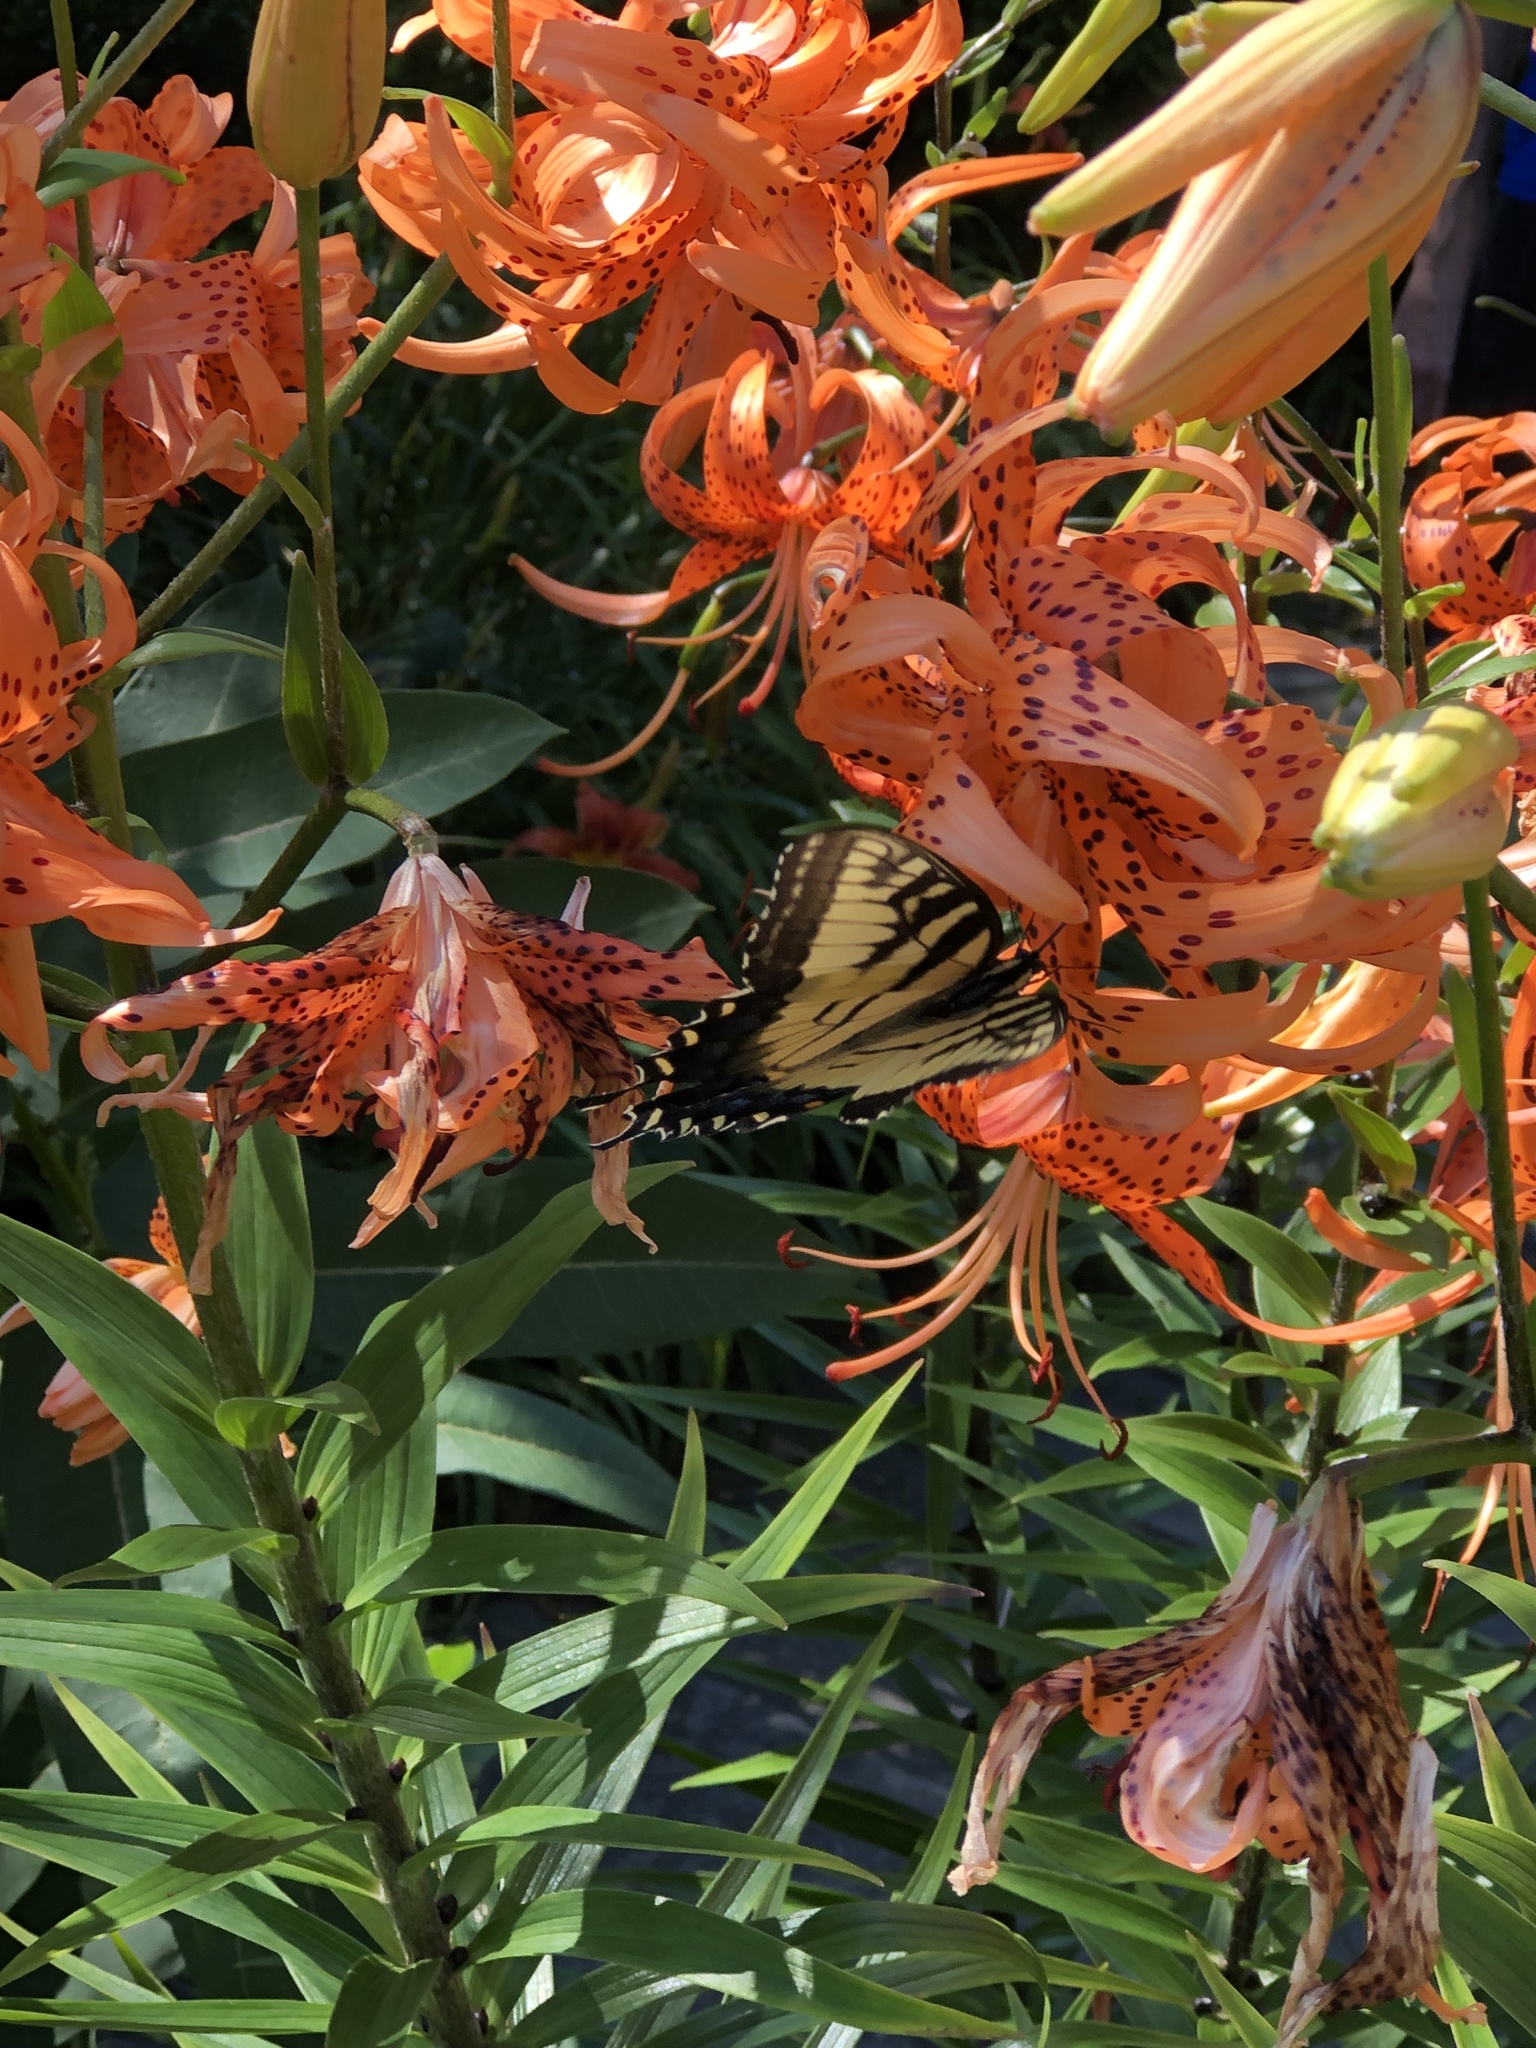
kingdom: Animalia
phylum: Arthropoda
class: Insecta
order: Lepidoptera
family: Papilionidae
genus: Papilio
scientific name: Papilio glaucus
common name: Tiger swallowtail
